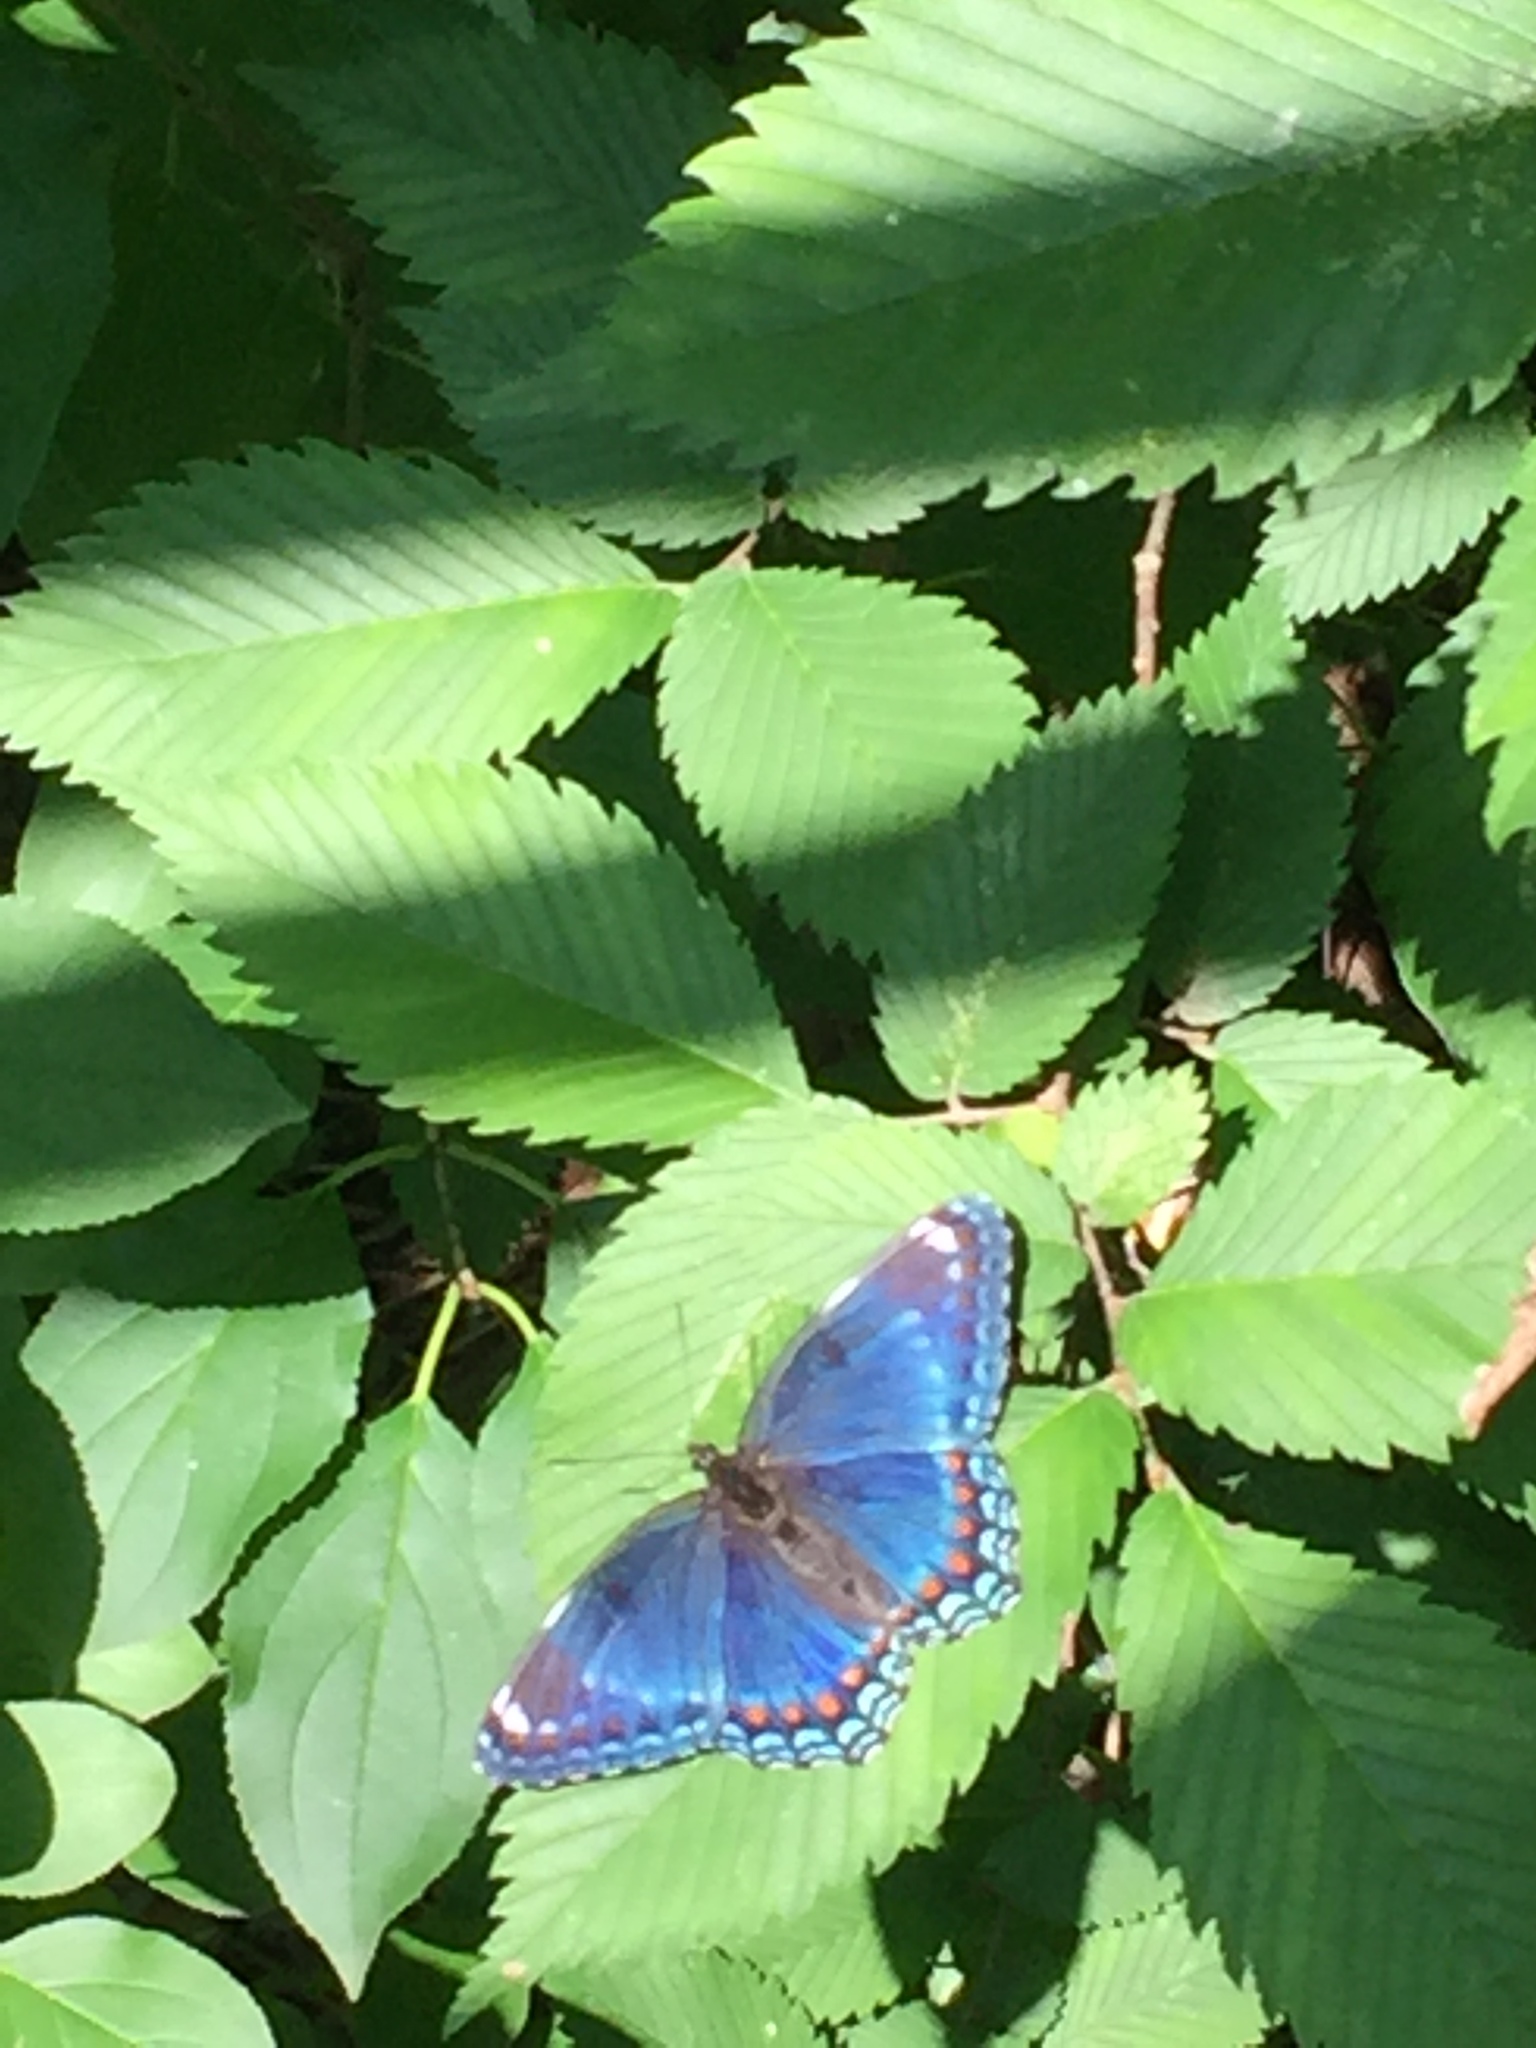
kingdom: Animalia
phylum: Arthropoda
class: Insecta
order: Lepidoptera
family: Nymphalidae
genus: Limenitis
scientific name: Limenitis arthemis
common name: Red-spotted admiral
